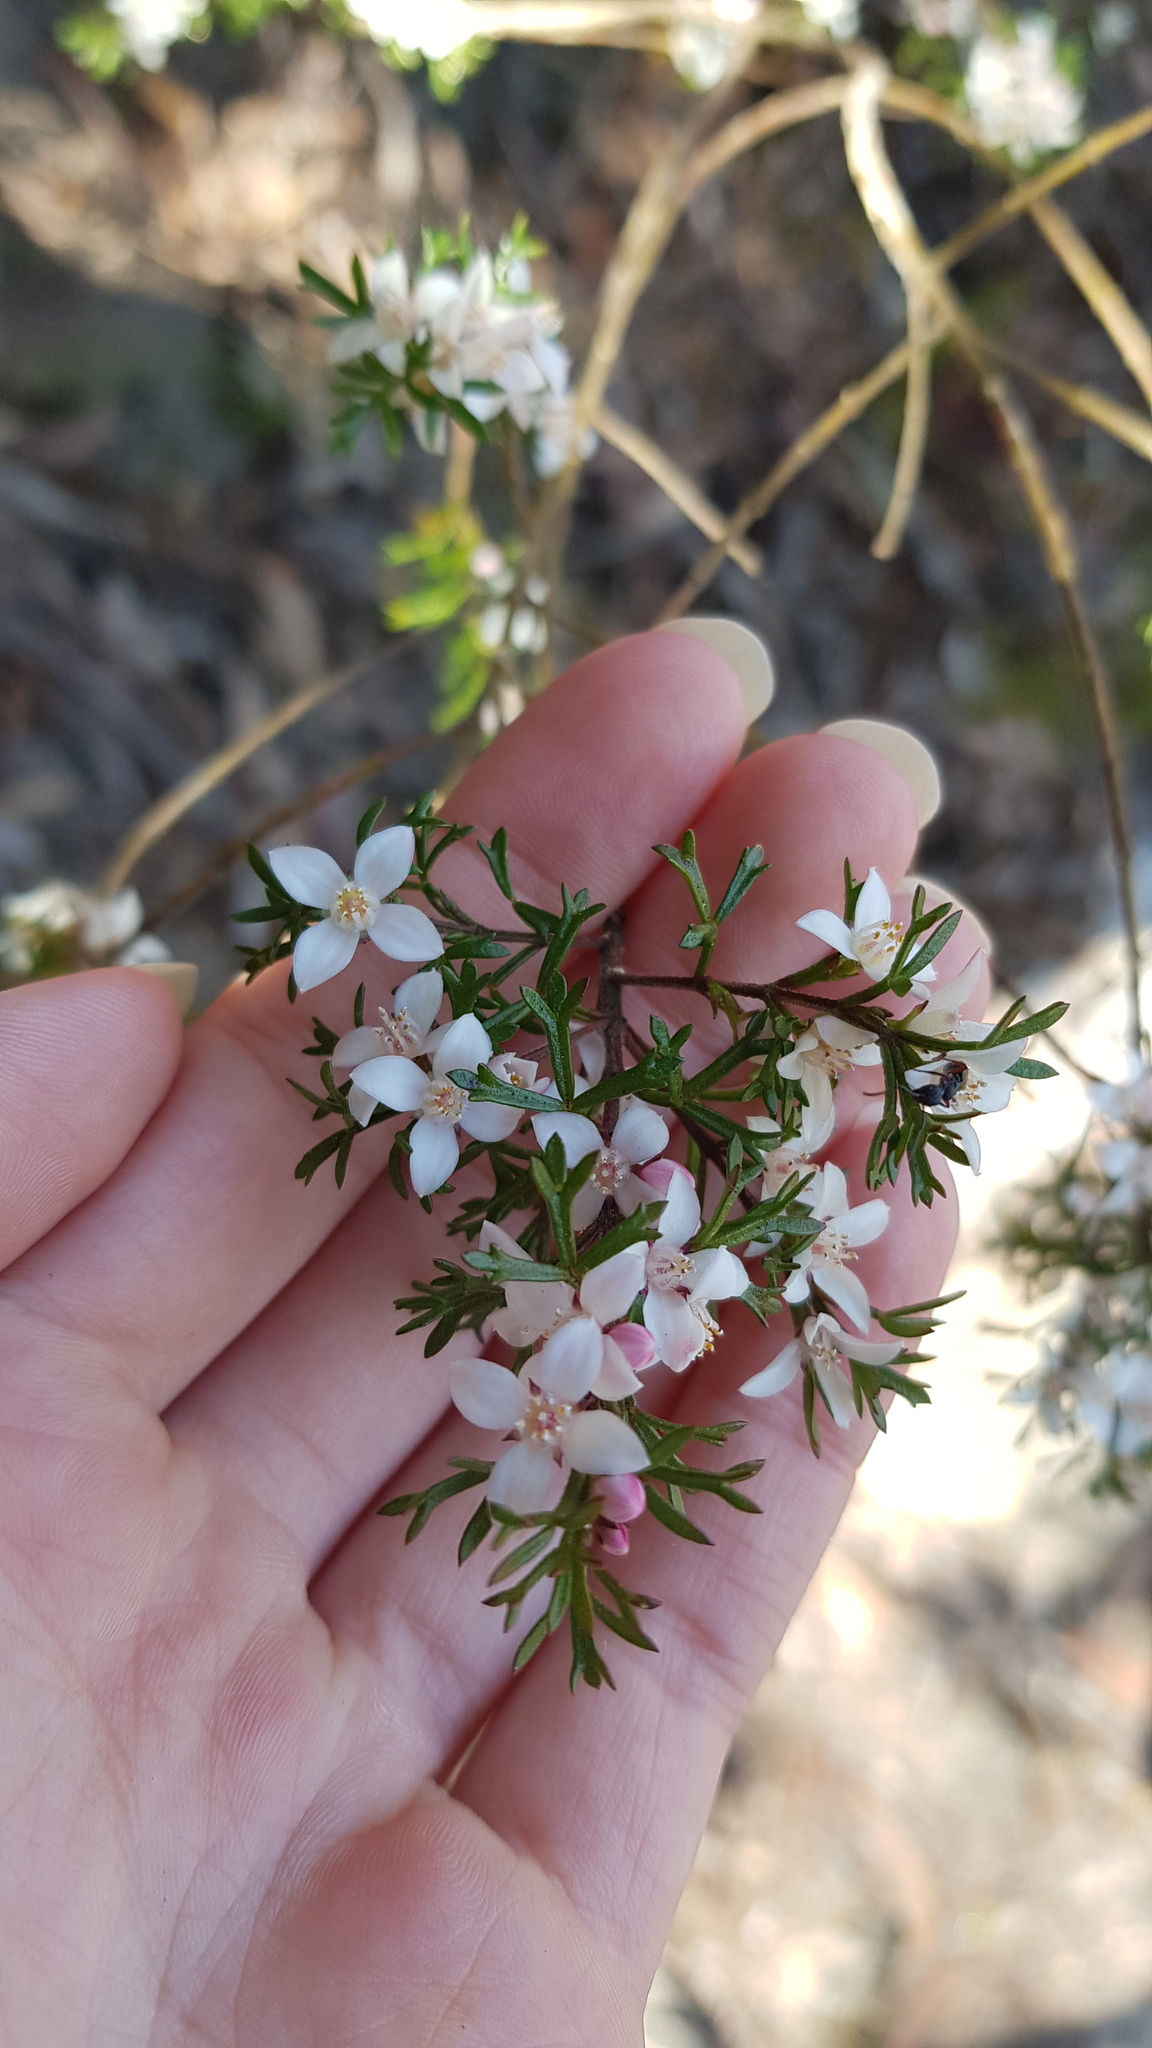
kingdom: Plantae
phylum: Tracheophyta
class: Magnoliopsida
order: Sapindales
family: Rutaceae
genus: Cyanothamnus
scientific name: Cyanothamnus anemonifolius
